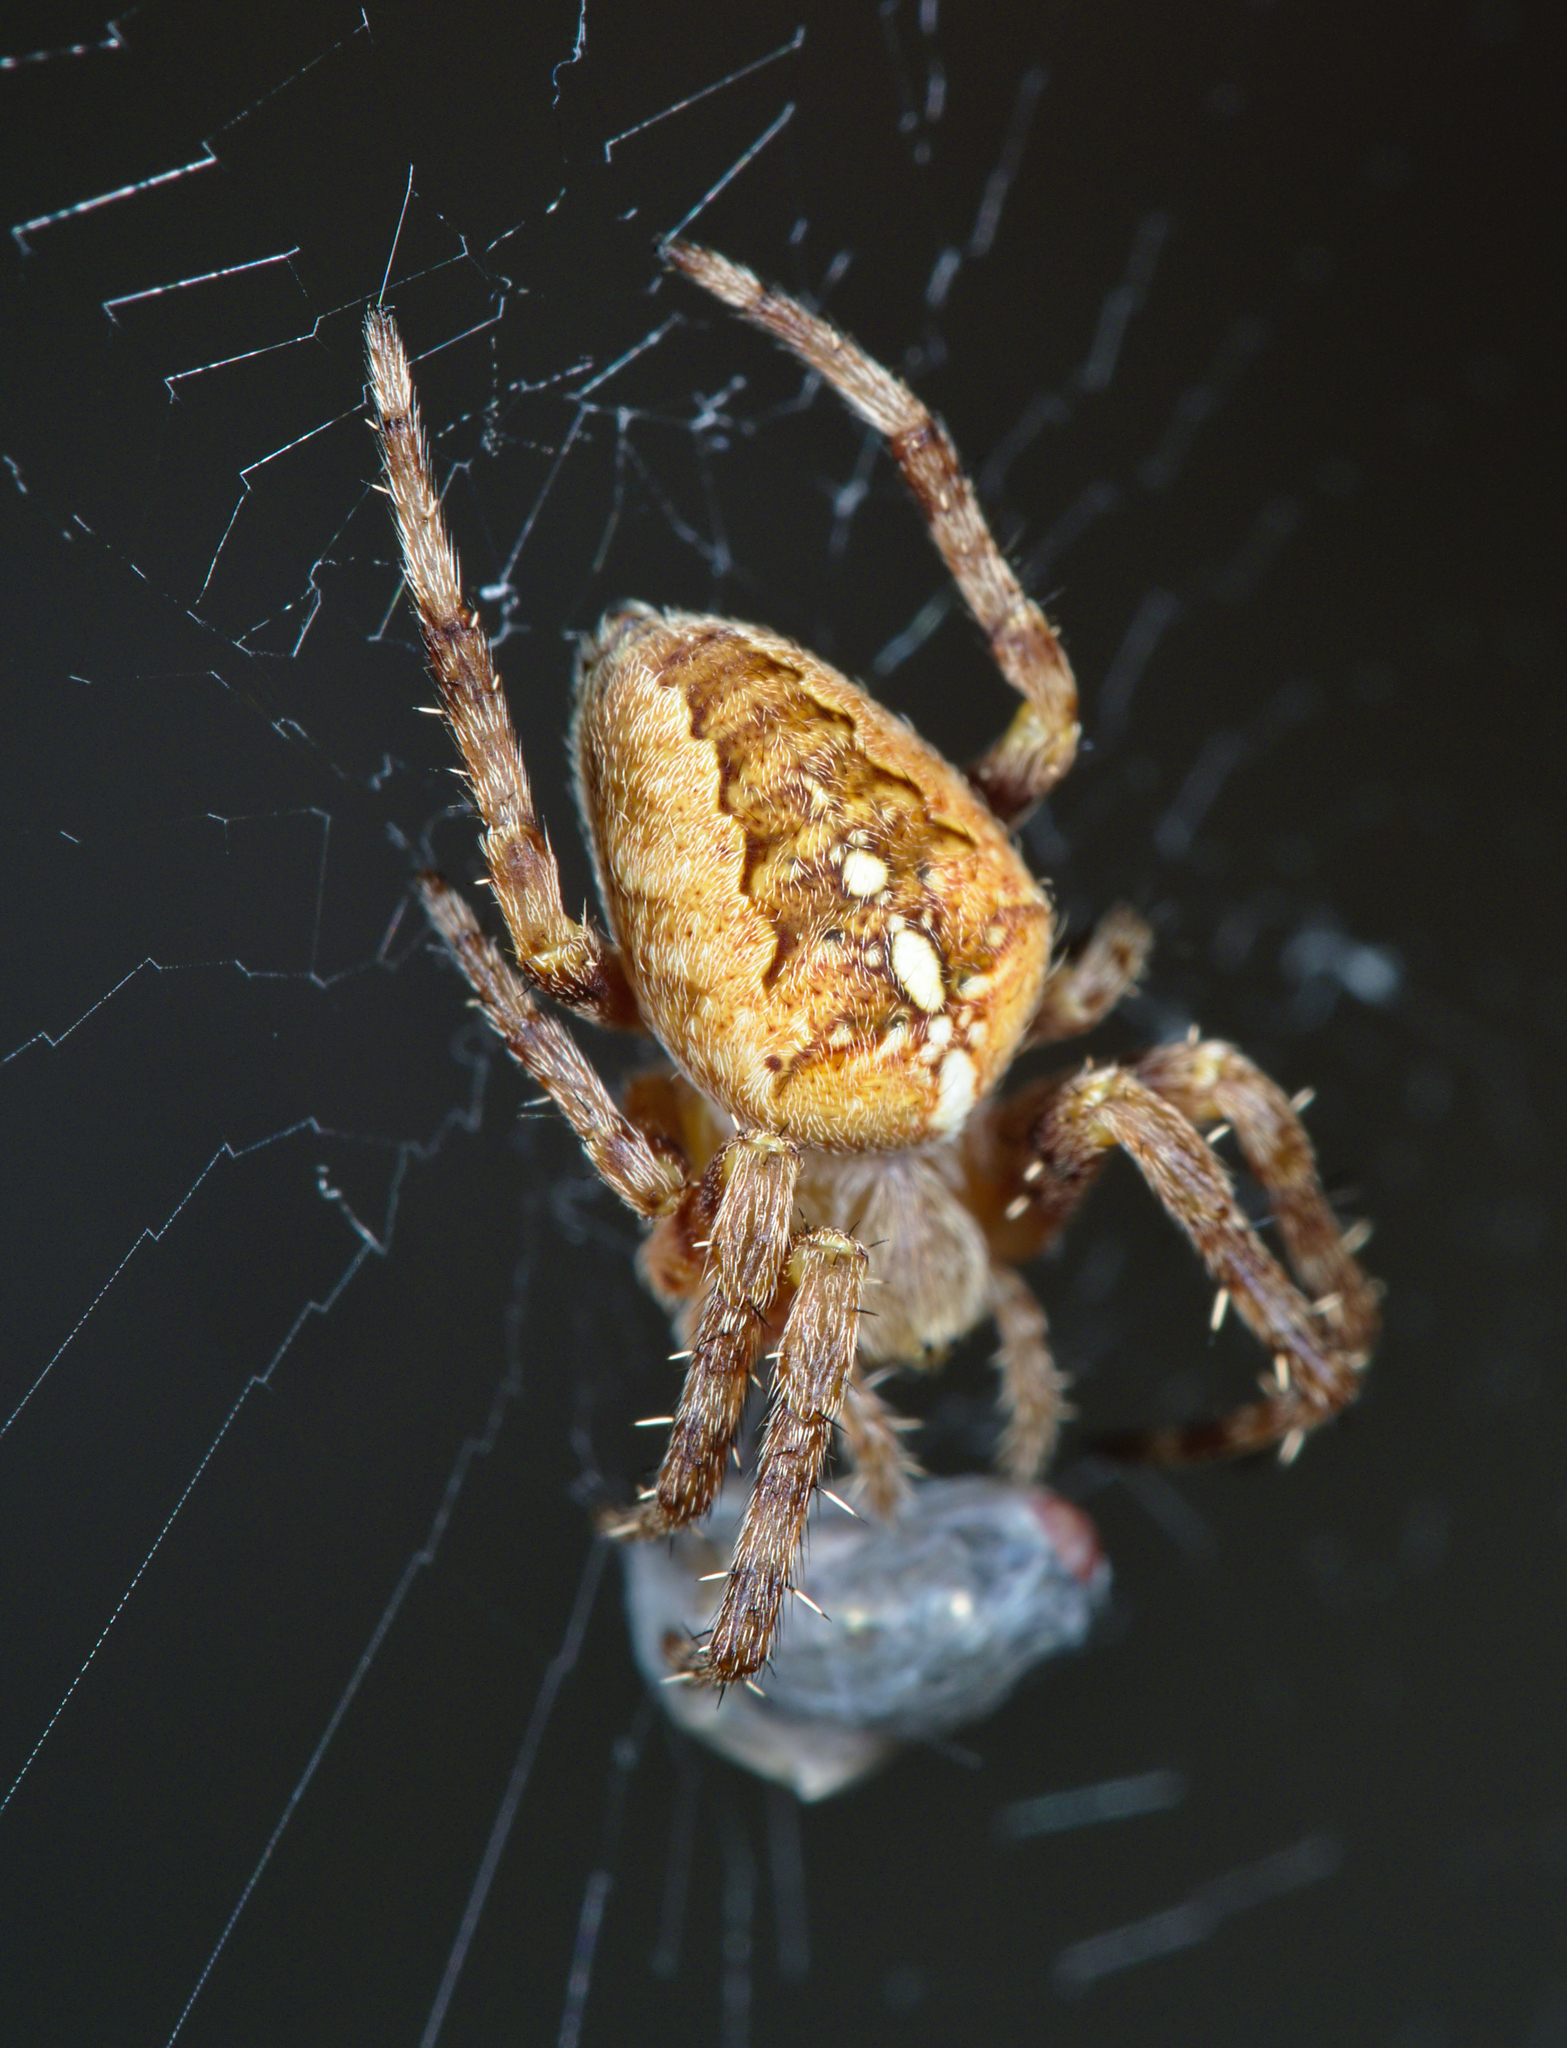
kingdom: Animalia
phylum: Arthropoda
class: Arachnida
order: Araneae
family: Araneidae
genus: Araneus
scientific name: Araneus diadematus
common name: Cross orbweaver
